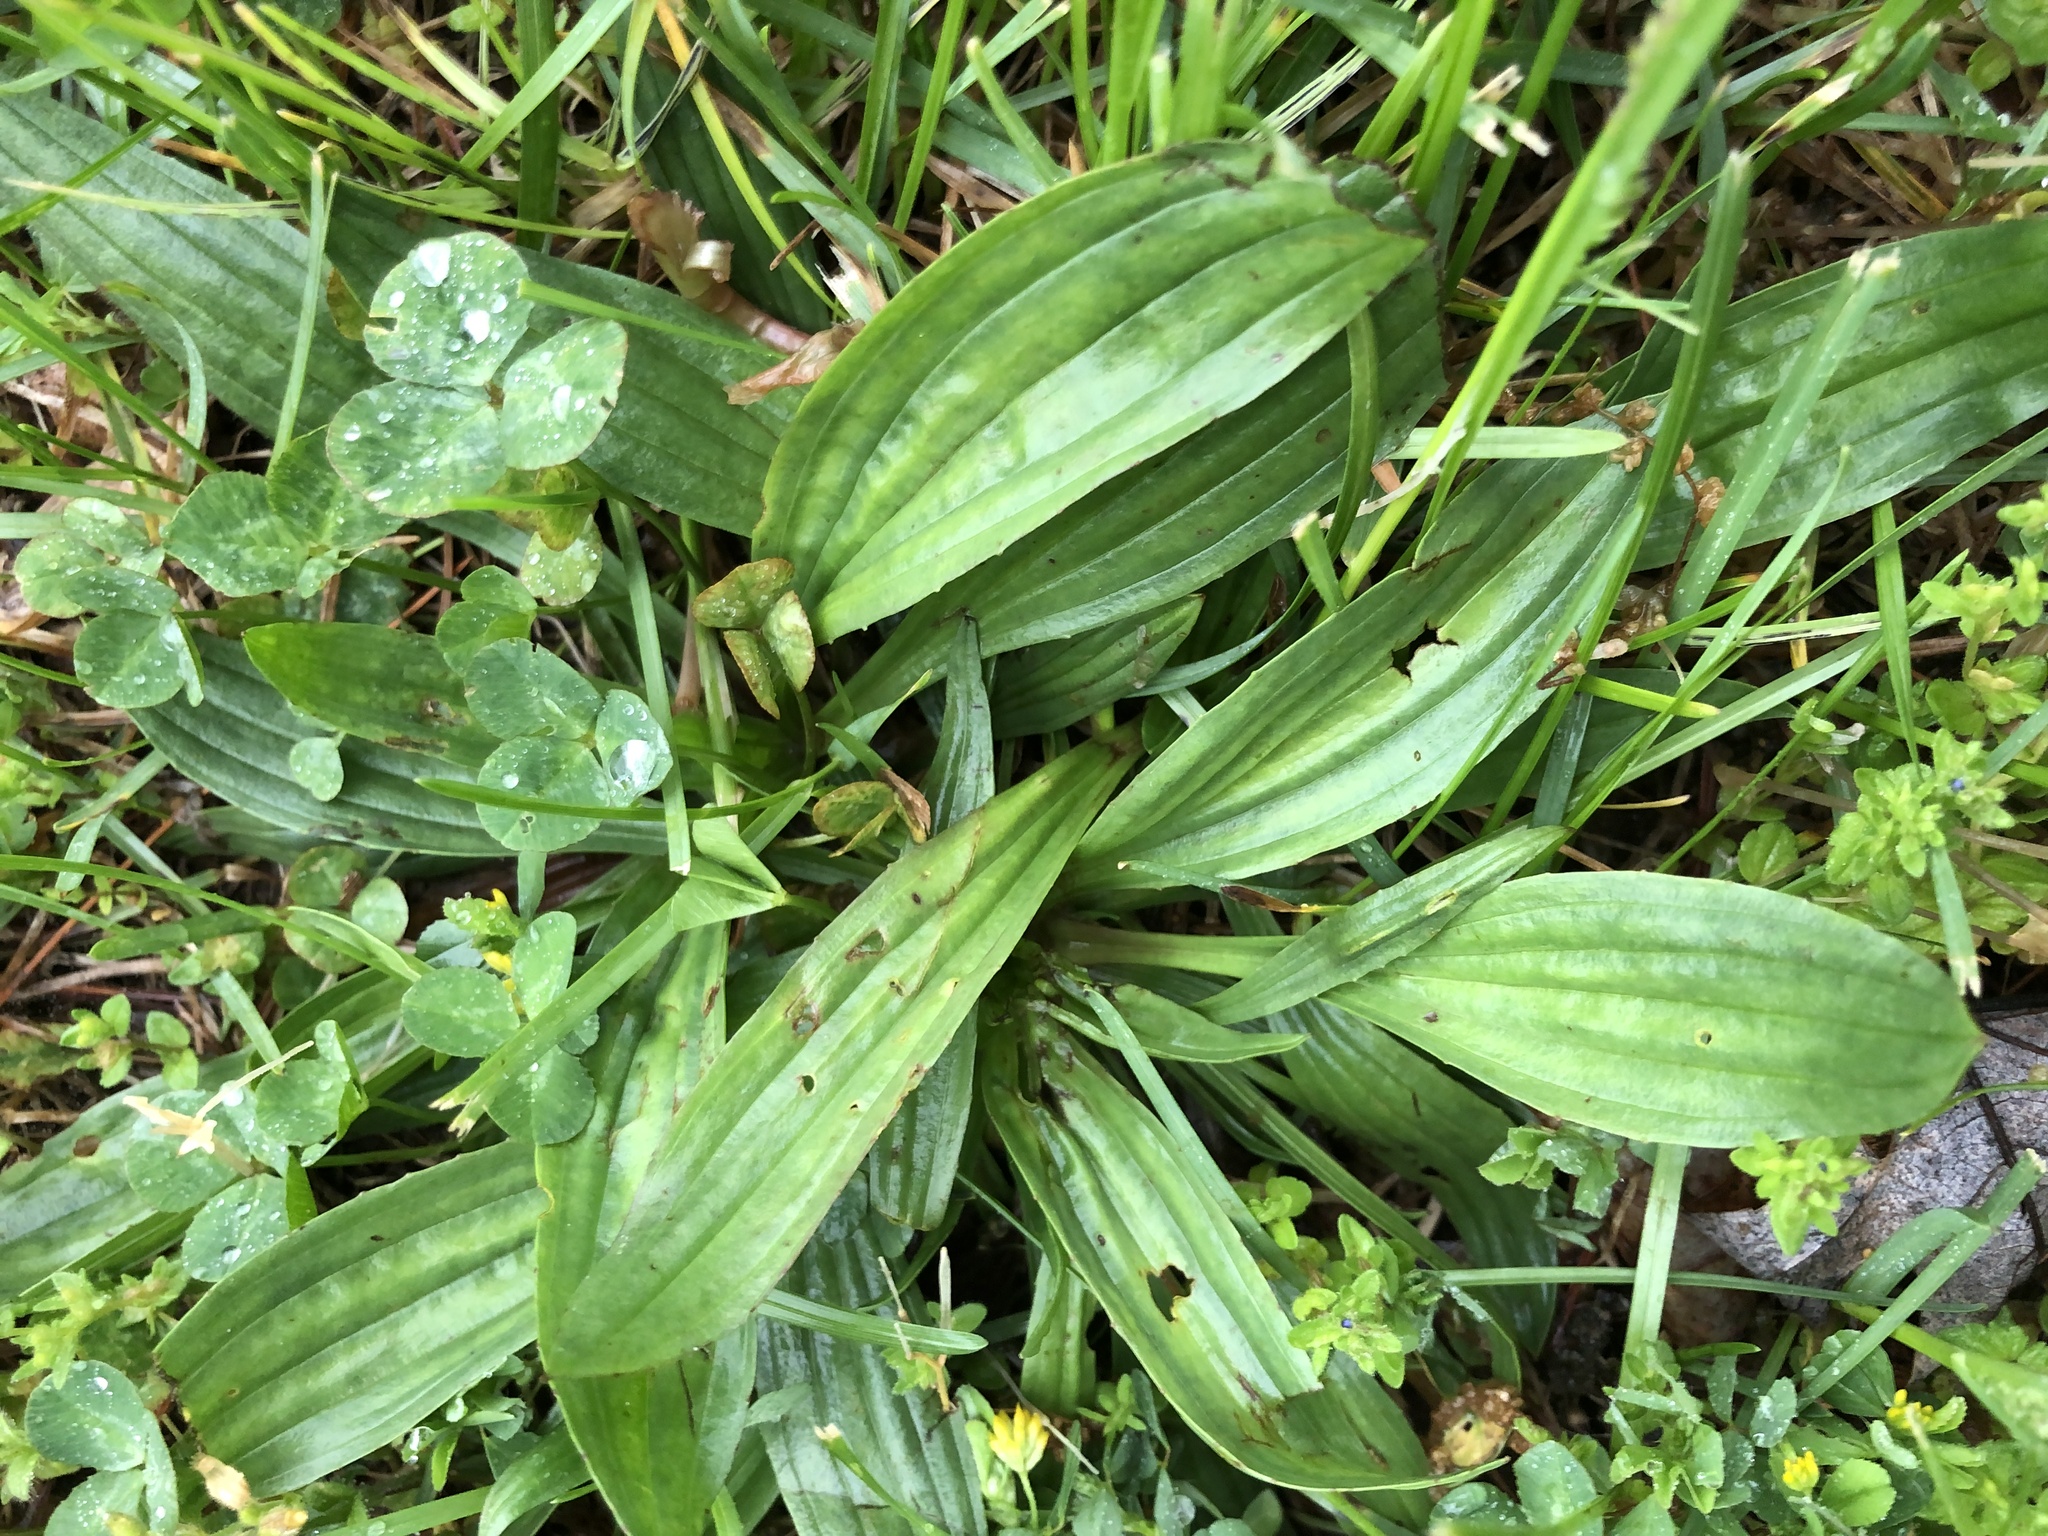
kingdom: Plantae
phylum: Tracheophyta
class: Magnoliopsida
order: Lamiales
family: Plantaginaceae
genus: Plantago
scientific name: Plantago lanceolata
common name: Ribwort plantain
